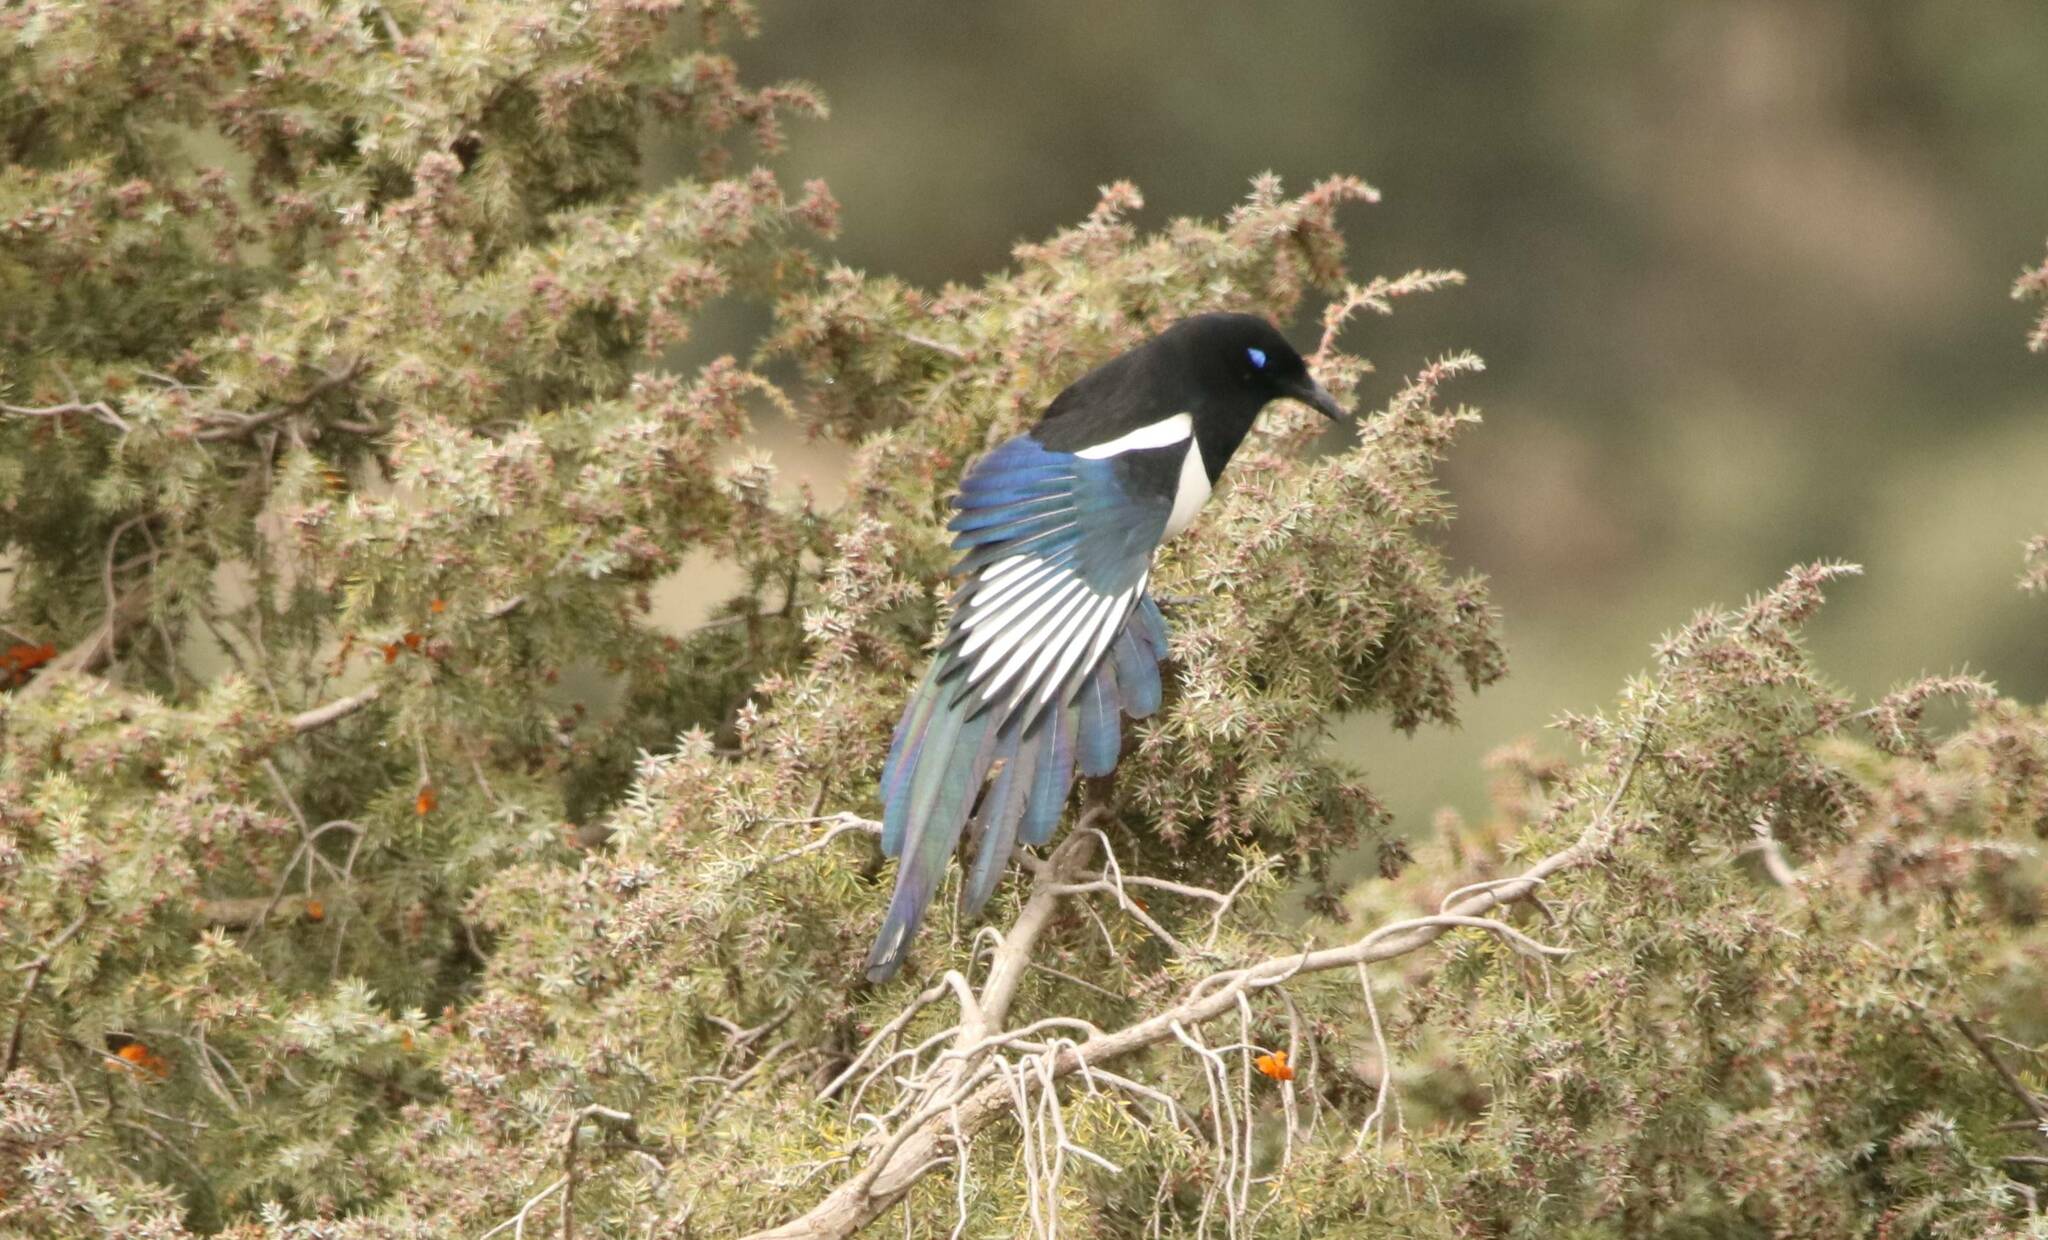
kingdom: Animalia
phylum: Chordata
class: Aves
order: Passeriformes
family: Corvidae
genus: Pica
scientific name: Pica mauritanica
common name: Maghreb magpie
